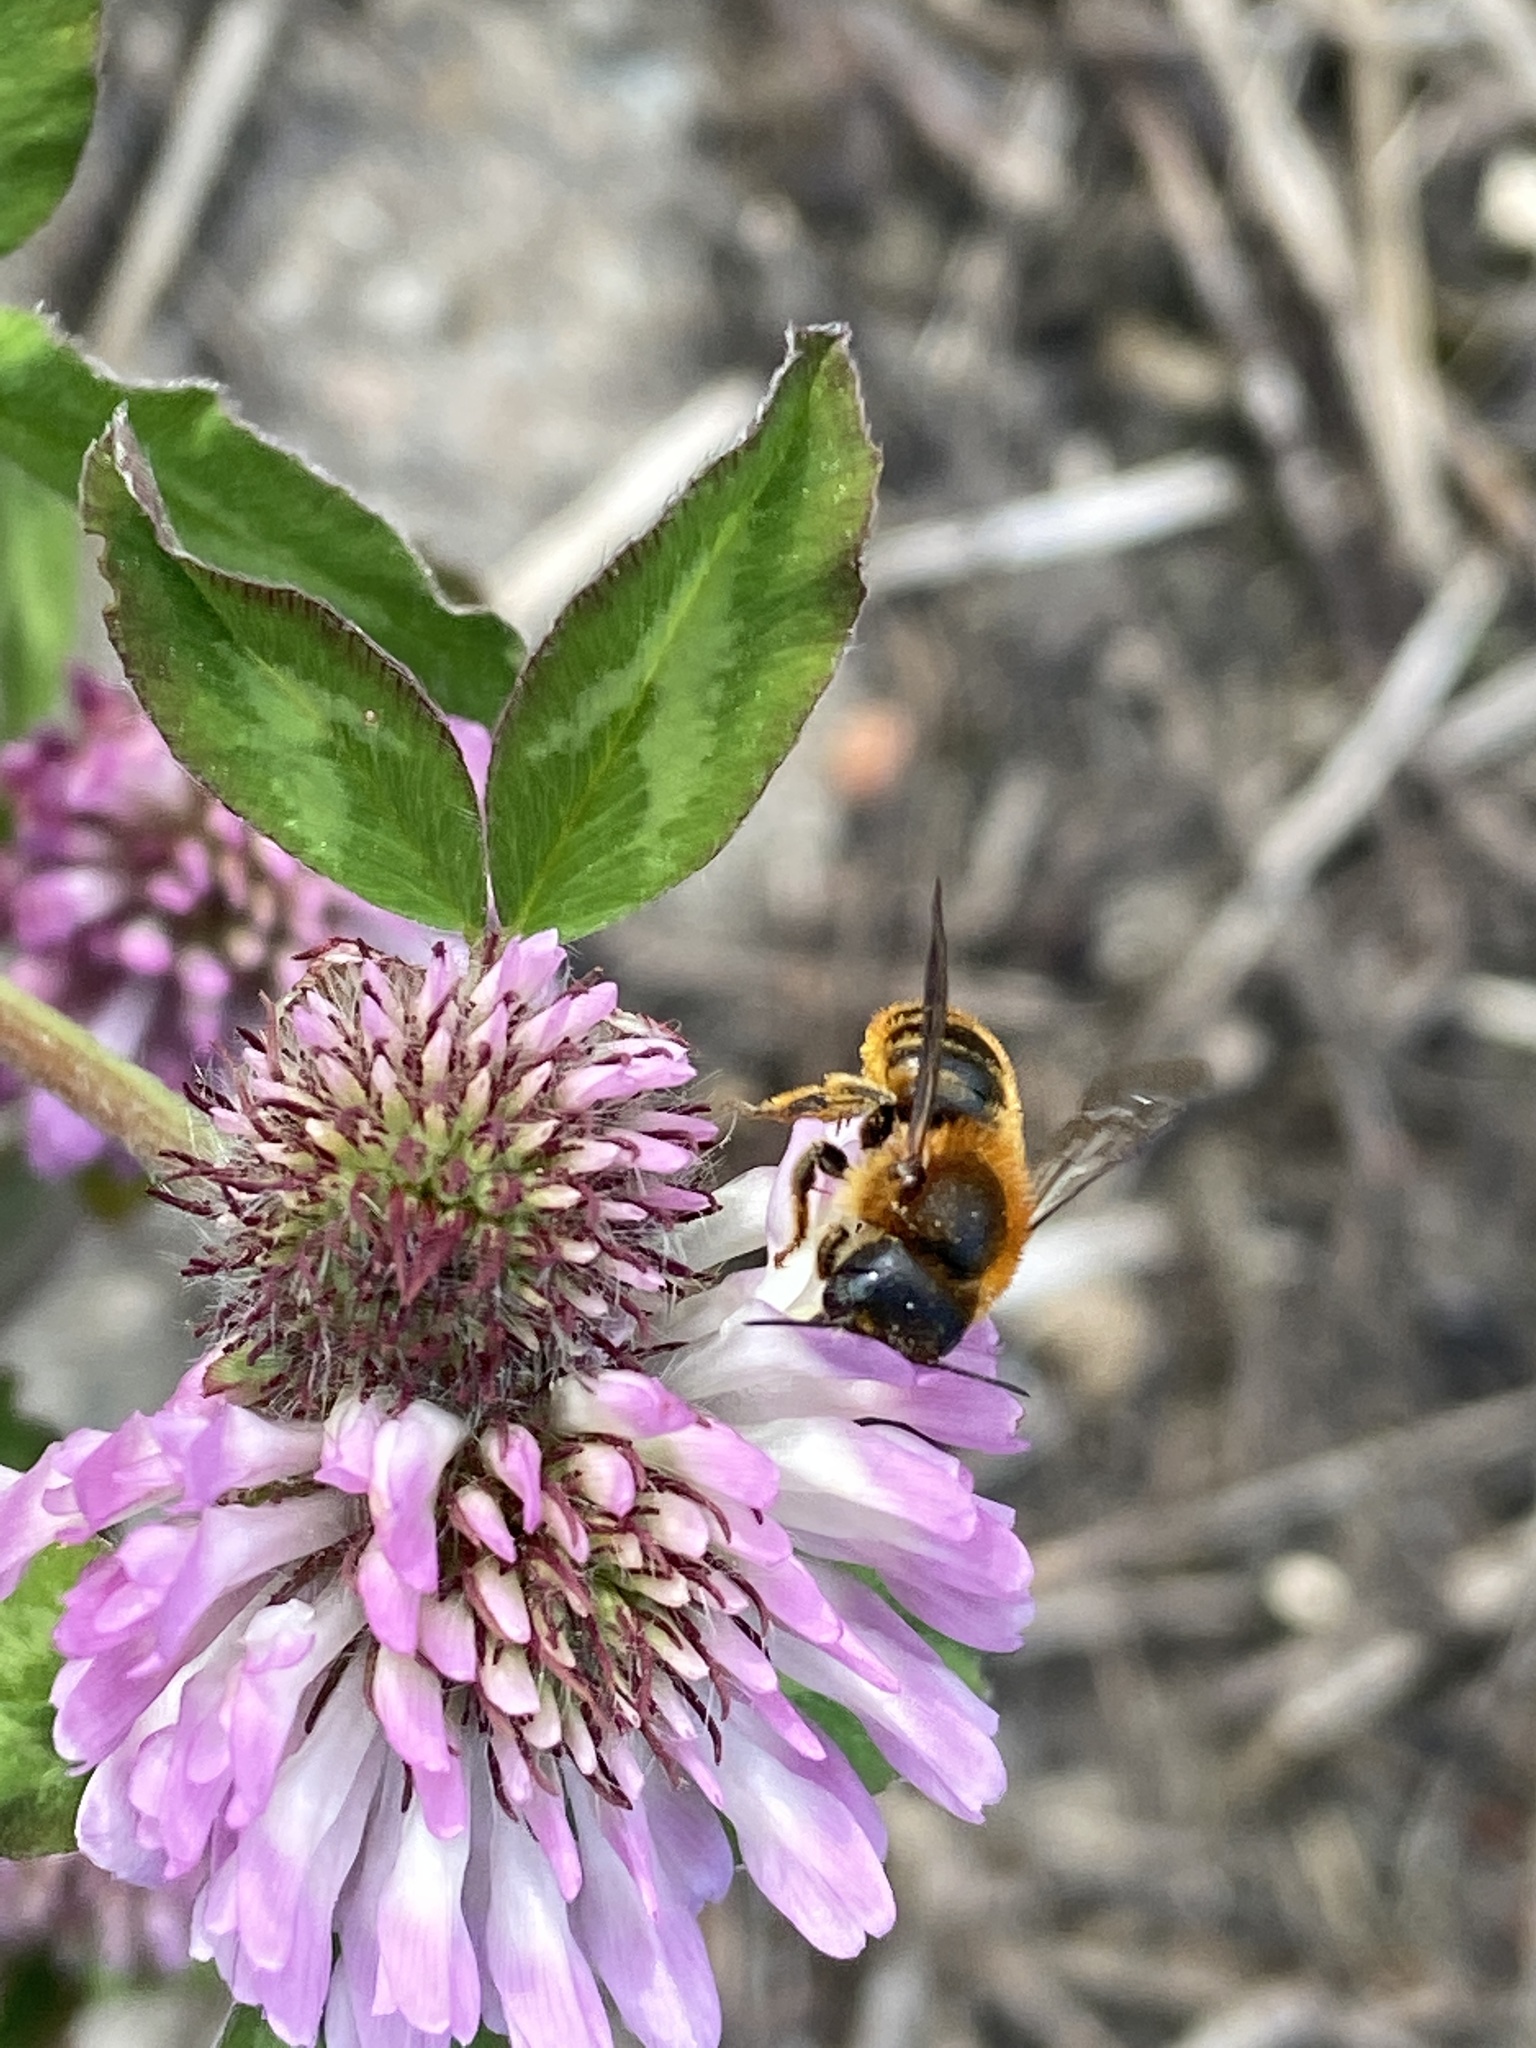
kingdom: Animalia
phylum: Arthropoda
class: Insecta
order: Hymenoptera
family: Megachilidae
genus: Osmia
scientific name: Osmia aurulenta
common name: Gold-fringed mason bee
